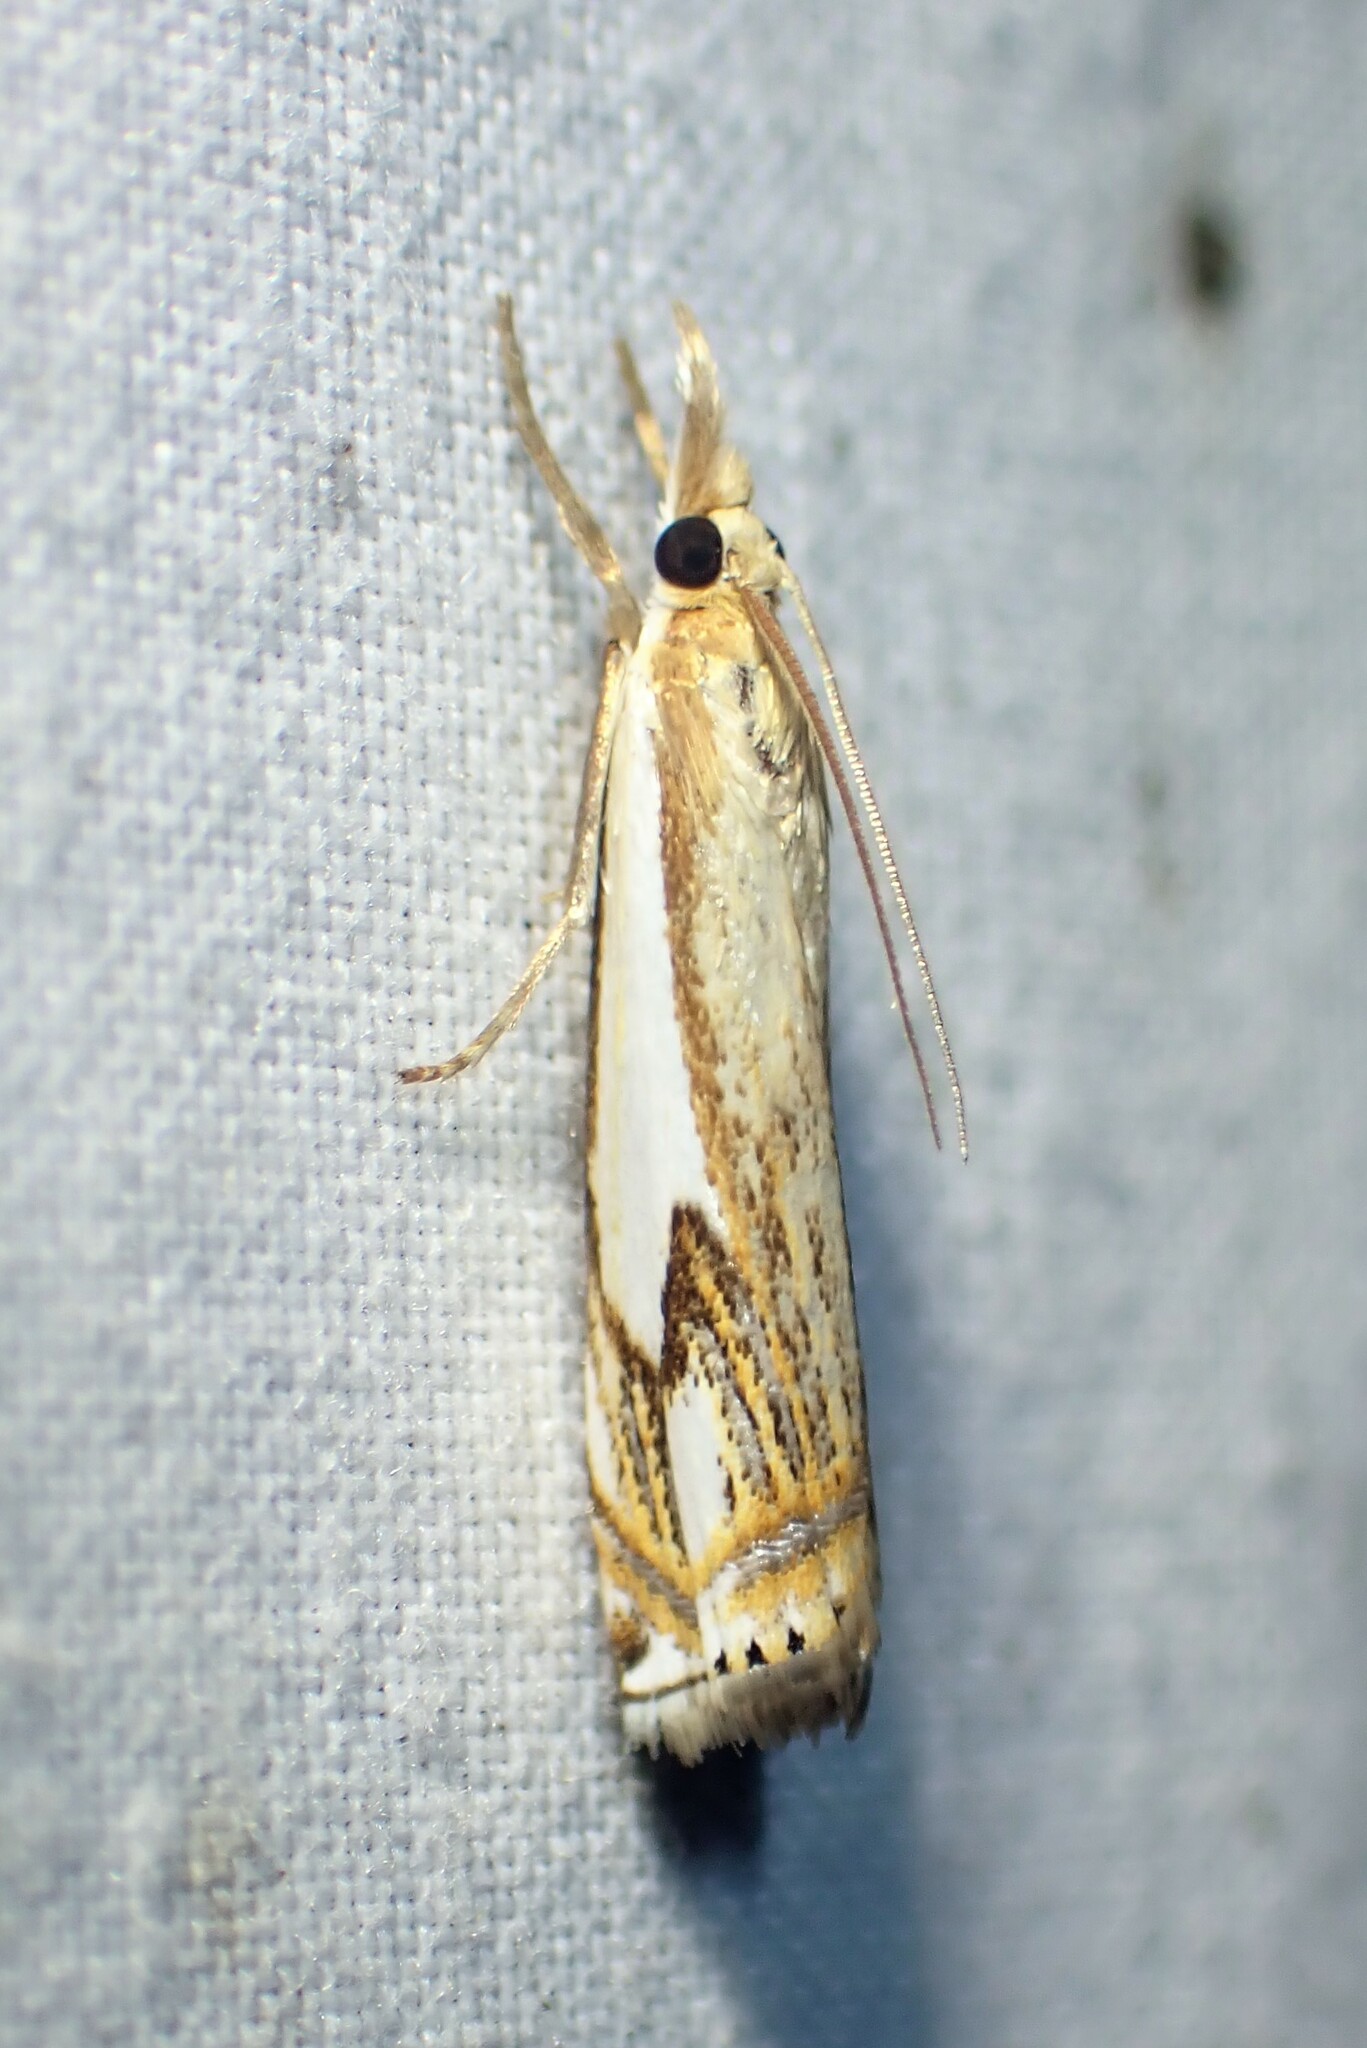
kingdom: Animalia
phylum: Arthropoda
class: Insecta
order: Lepidoptera
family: Crambidae
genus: Crambus
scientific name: Crambus agitatellus
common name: Double-banded grass-veneer
